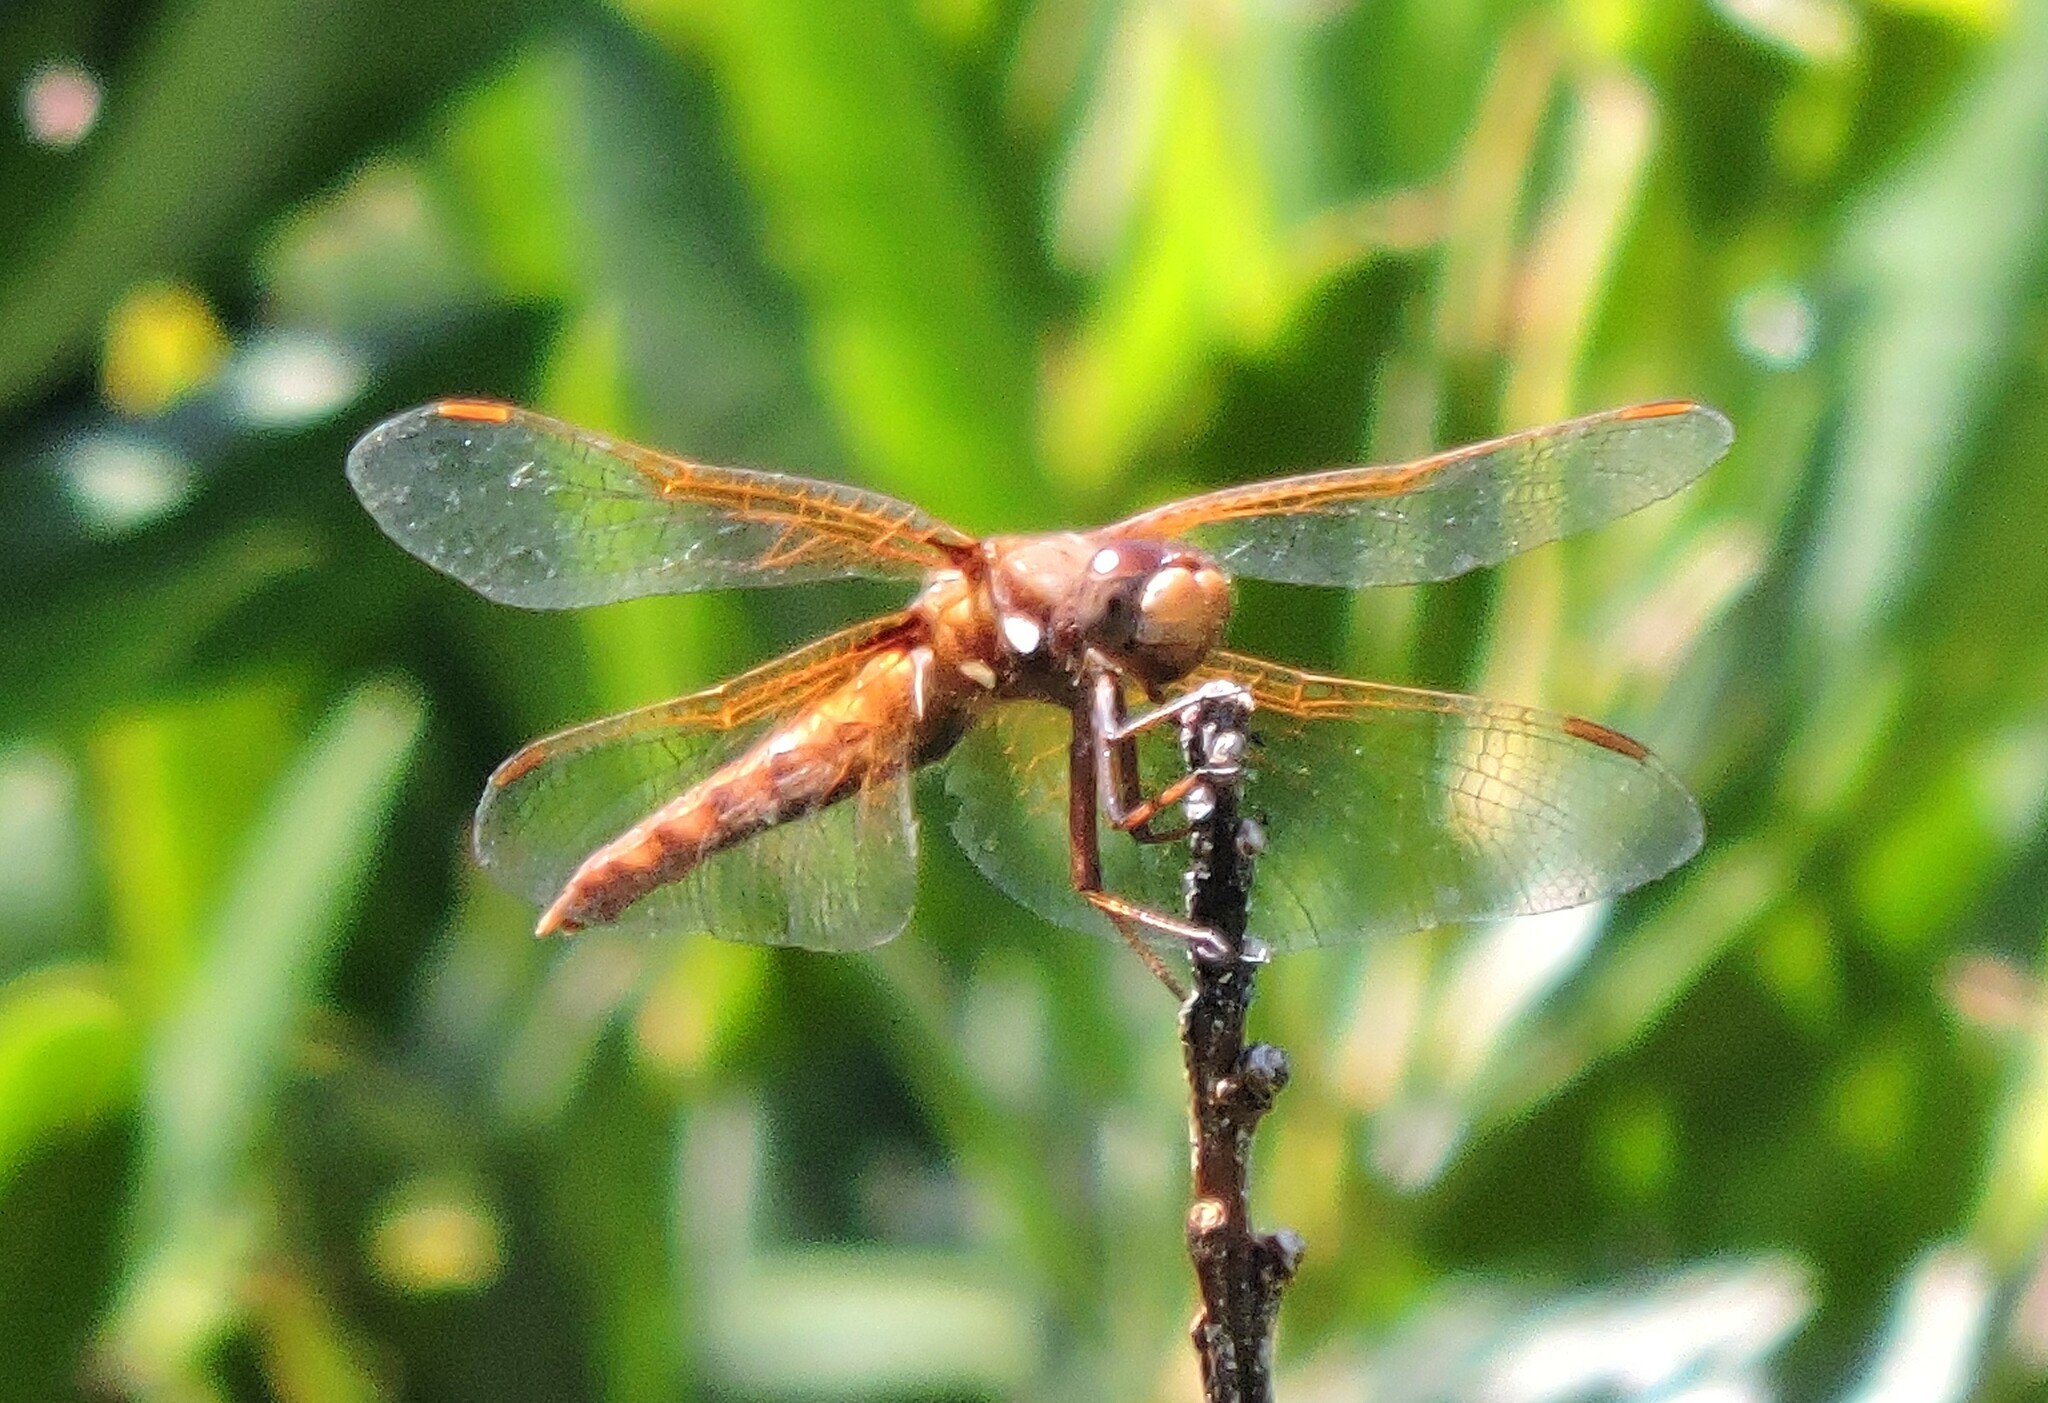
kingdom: Animalia
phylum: Arthropoda
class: Insecta
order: Odonata
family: Libellulidae
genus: Sympetrum
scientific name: Sympetrum illotum
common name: Cardinal meadowhawk
